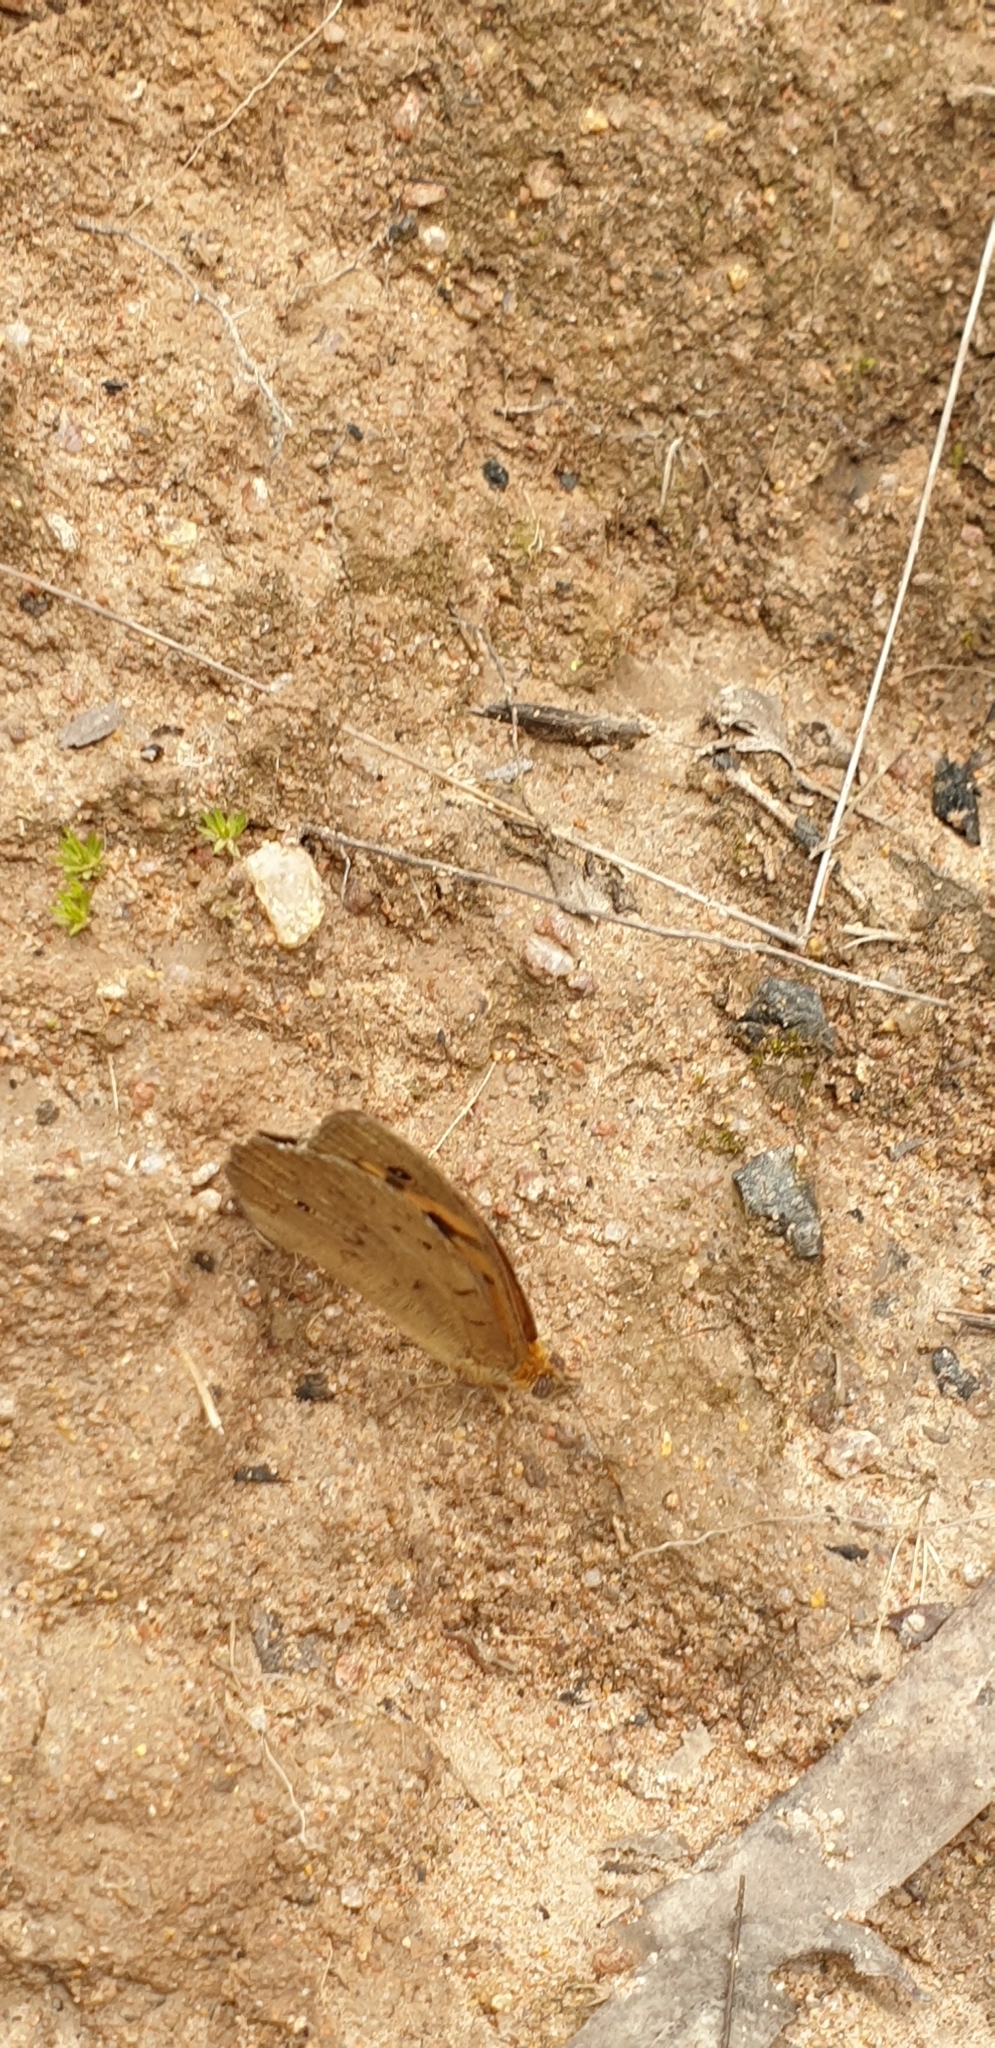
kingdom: Animalia
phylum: Arthropoda
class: Insecta
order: Lepidoptera
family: Nymphalidae
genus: Heteronympha
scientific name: Heteronympha merope
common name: Common brown
